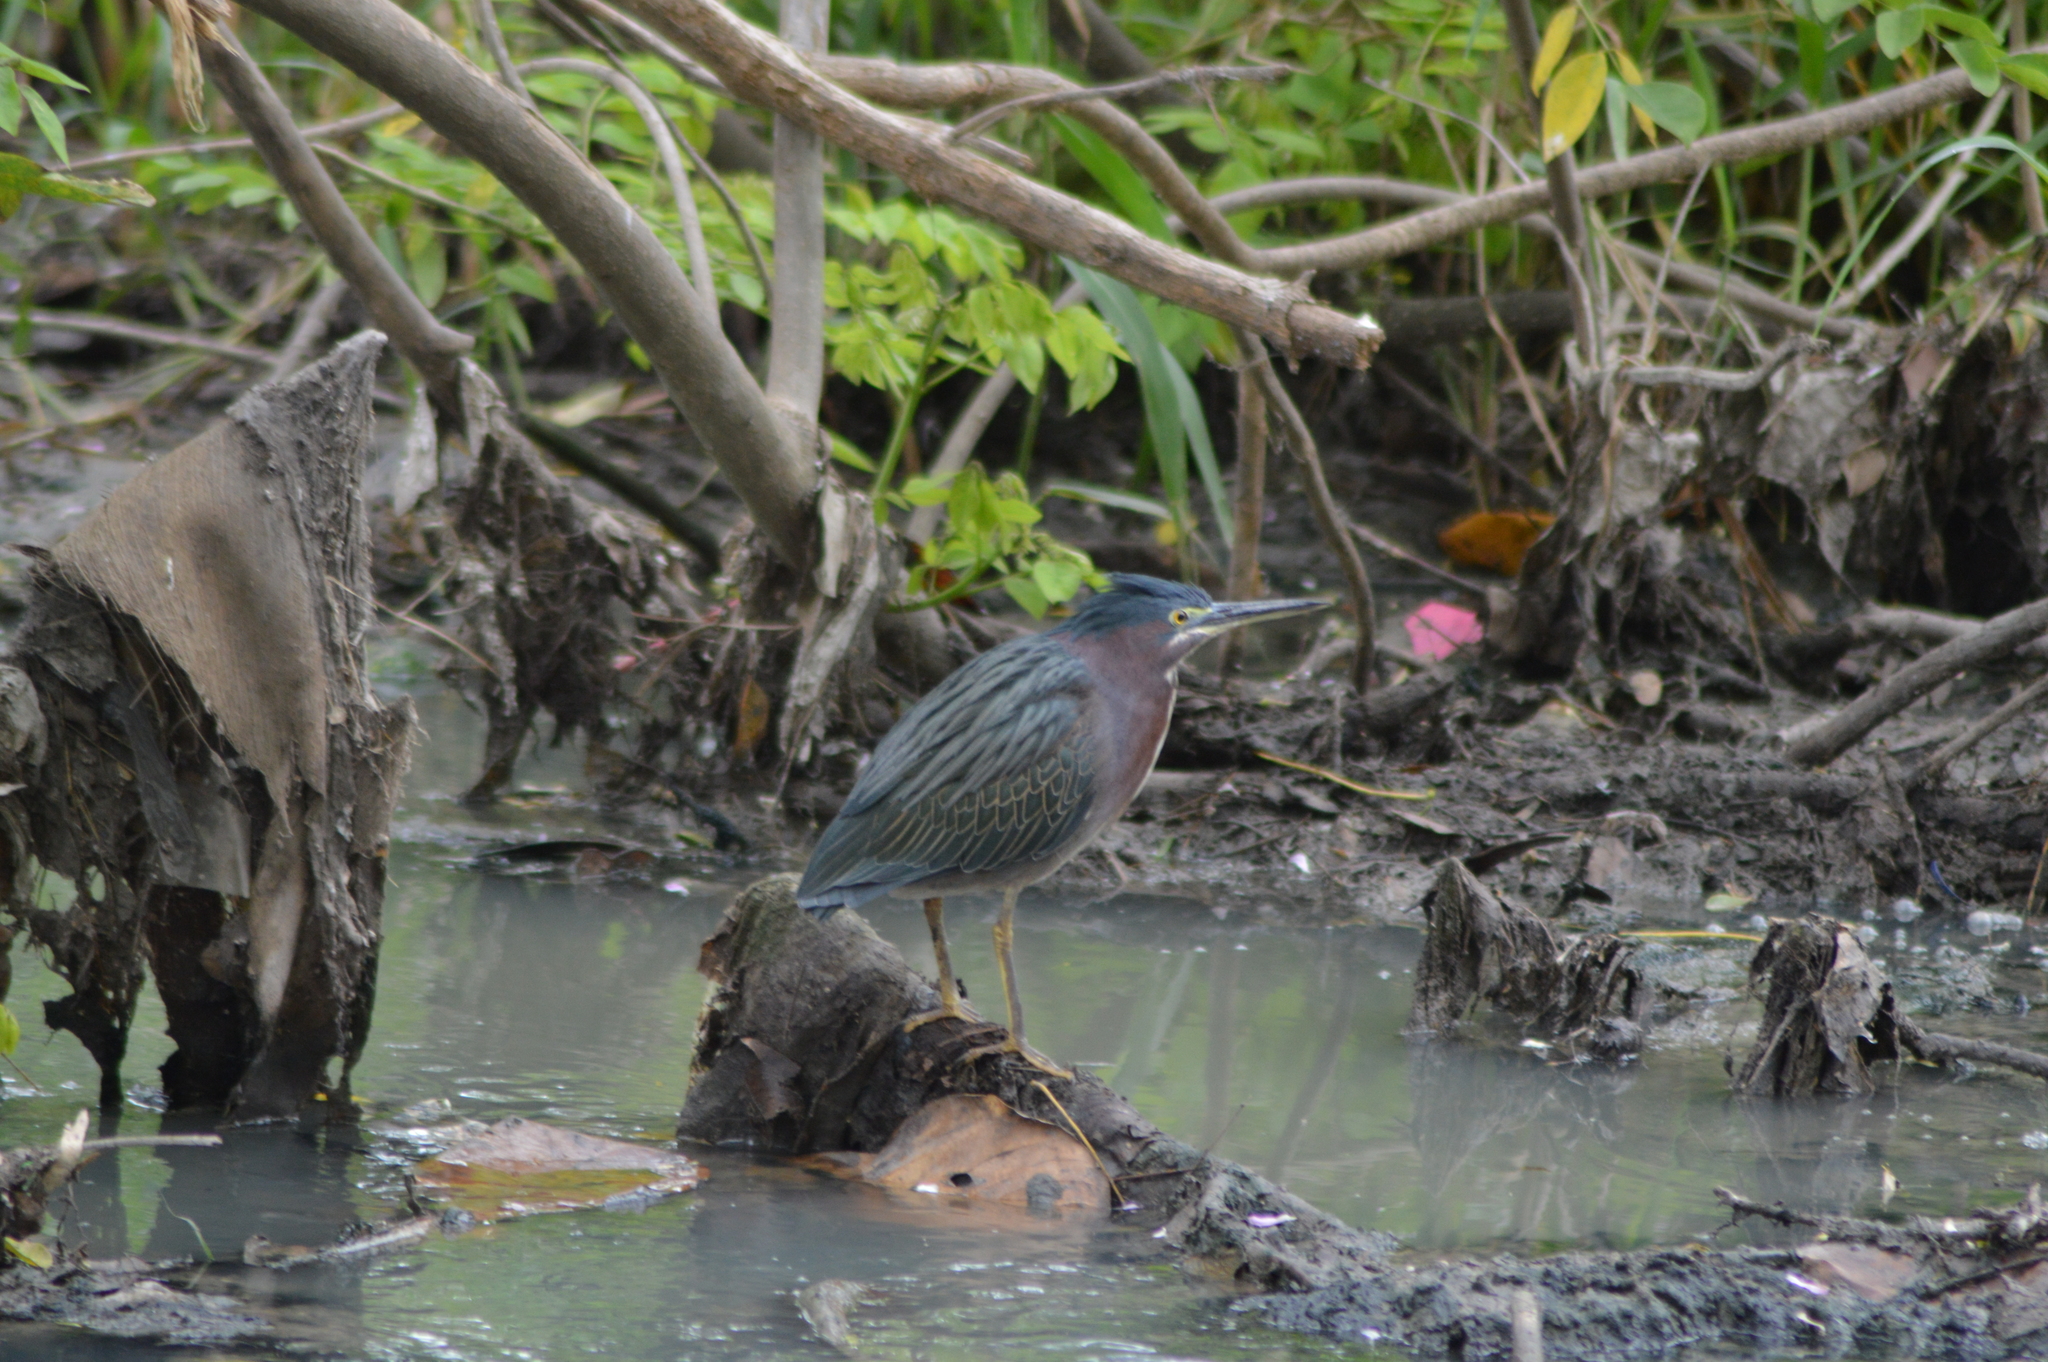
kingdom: Animalia
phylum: Chordata
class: Aves
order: Pelecaniformes
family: Ardeidae
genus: Butorides
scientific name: Butorides virescens
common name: Green heron
